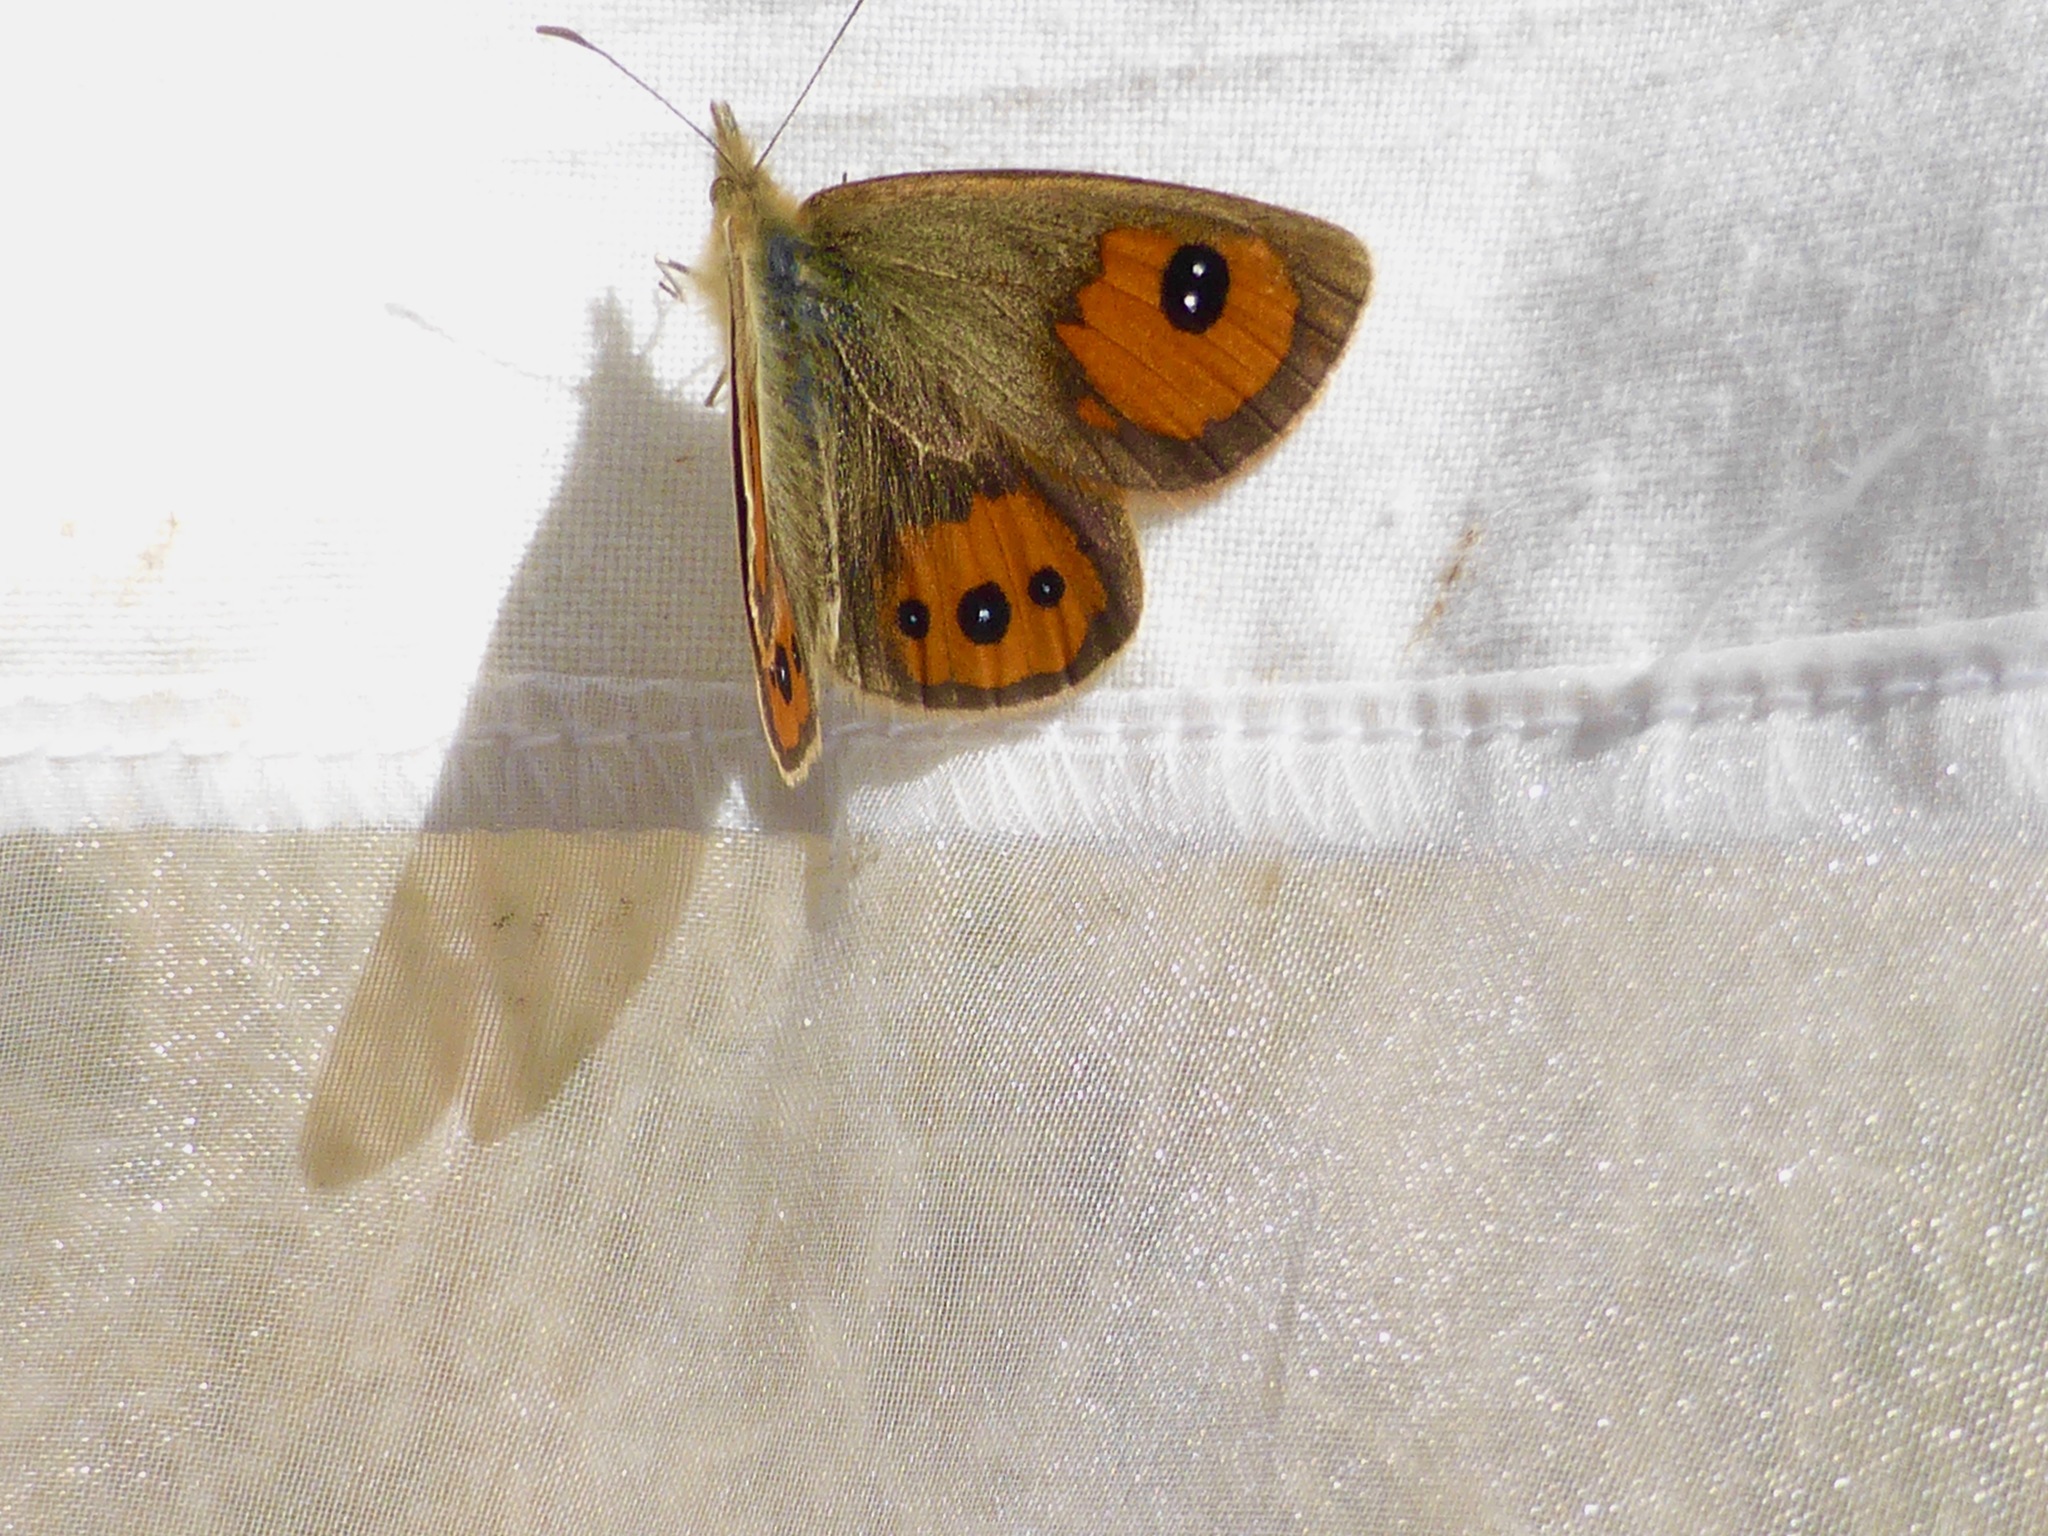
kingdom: Animalia
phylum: Arthropoda
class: Insecta
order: Lepidoptera
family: Nymphalidae
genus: Argyrophenga
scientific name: Argyrophenga antipodum
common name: Common tussock butterfly
